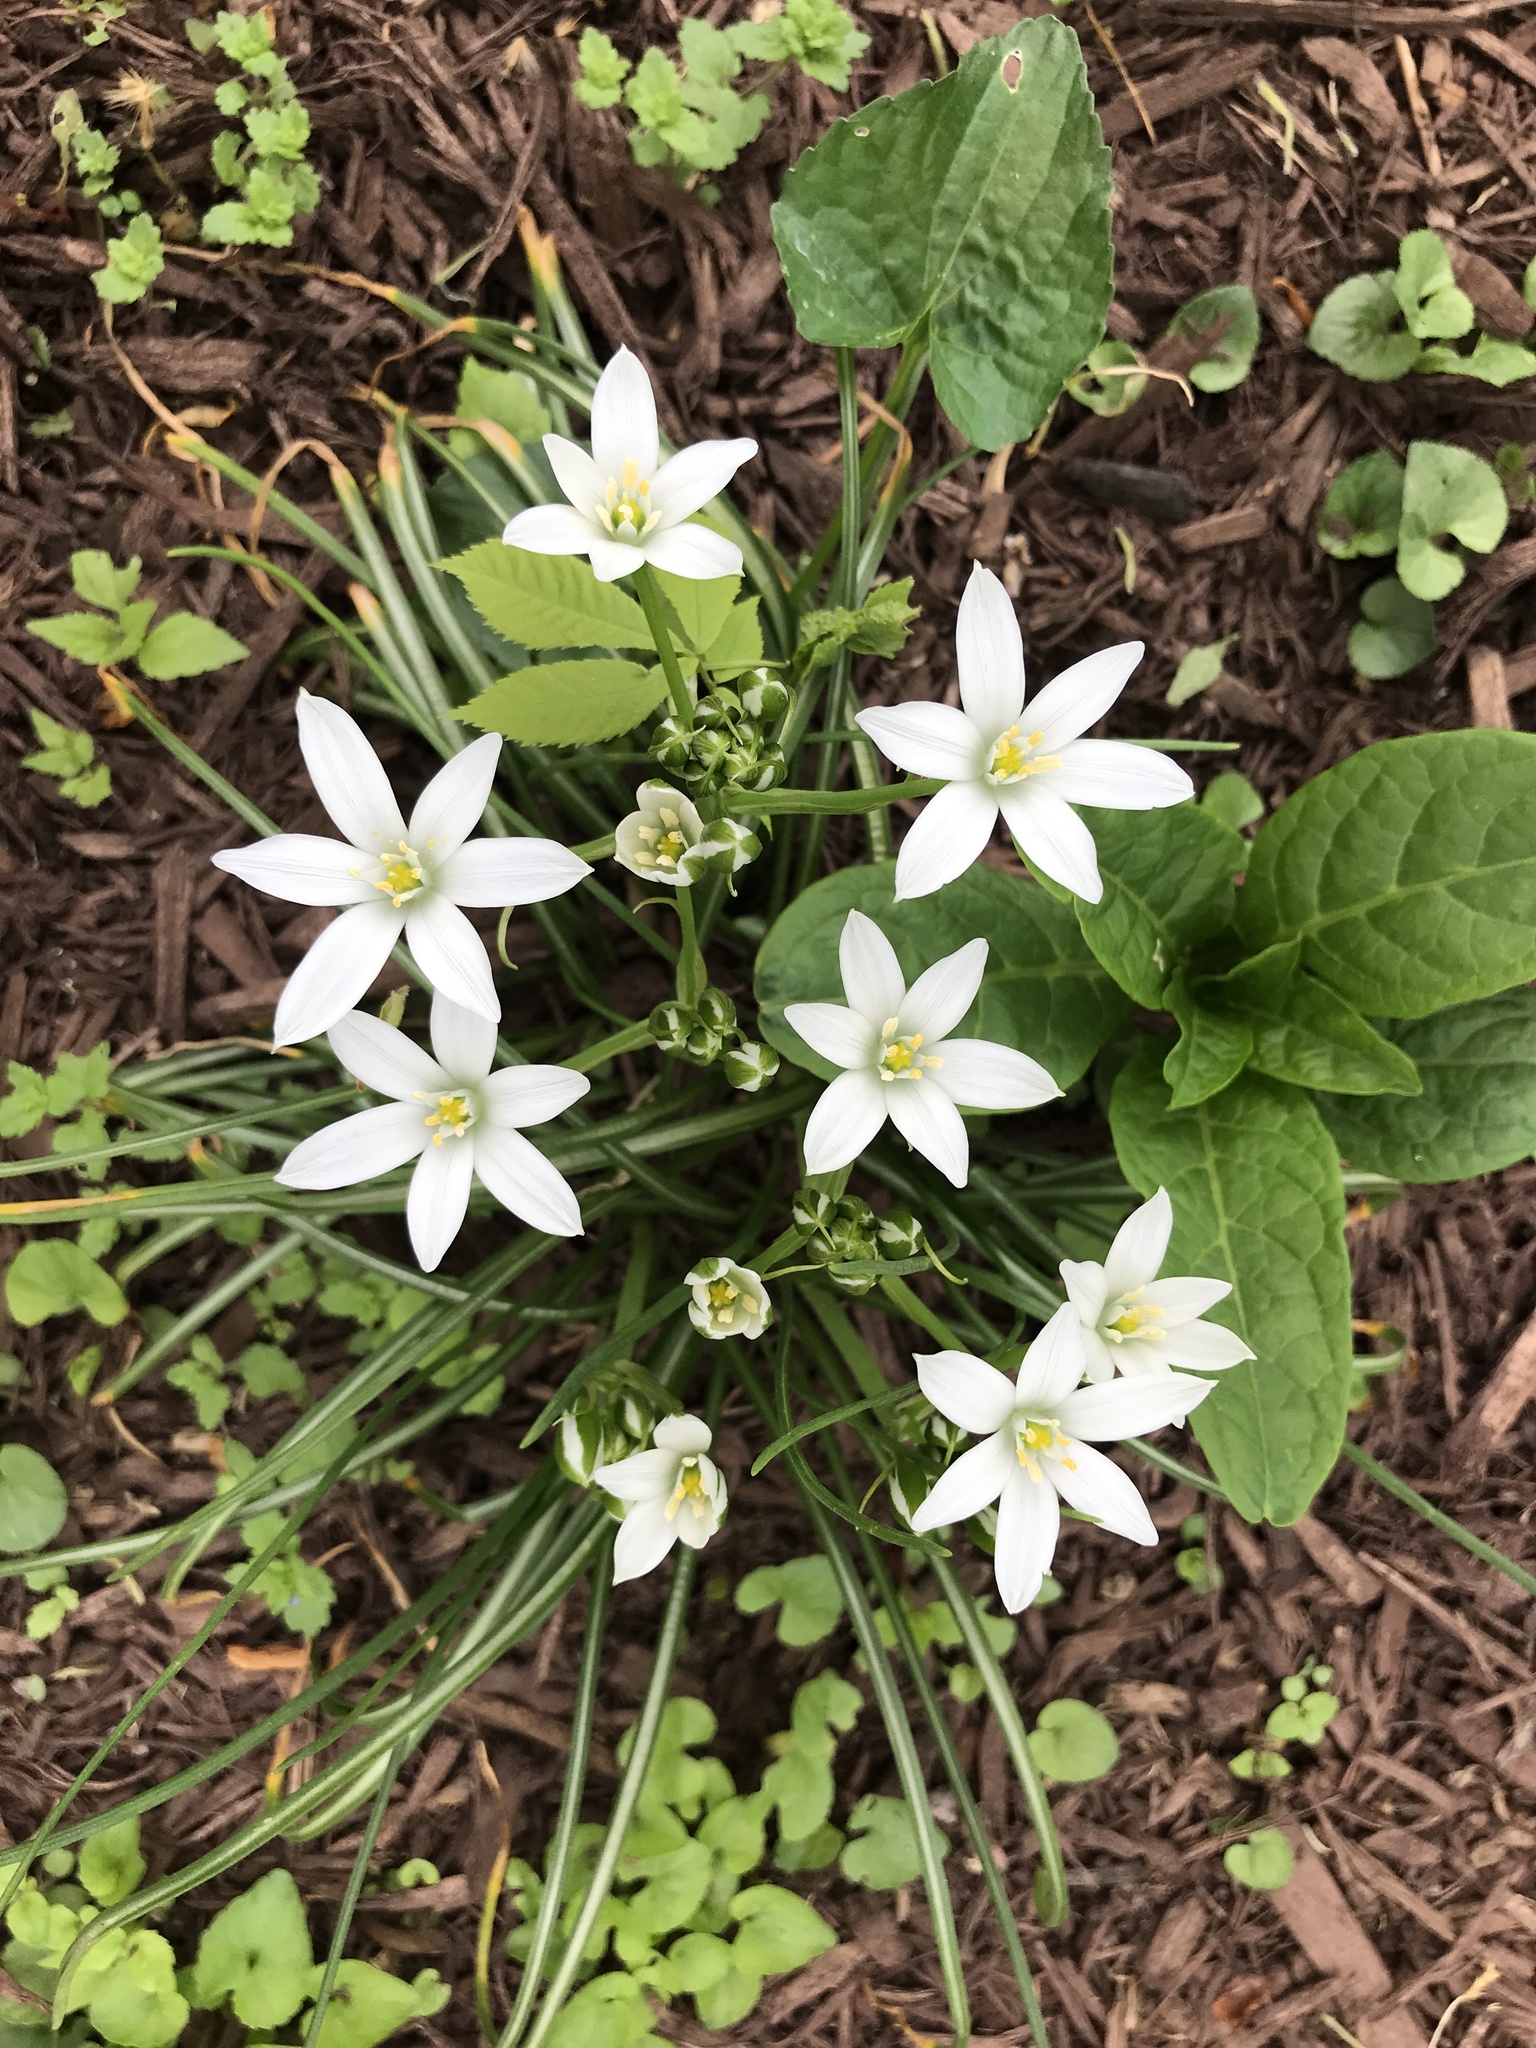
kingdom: Plantae
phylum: Tracheophyta
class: Liliopsida
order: Asparagales
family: Asparagaceae
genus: Ornithogalum
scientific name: Ornithogalum umbellatum
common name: Garden star-of-bethlehem
